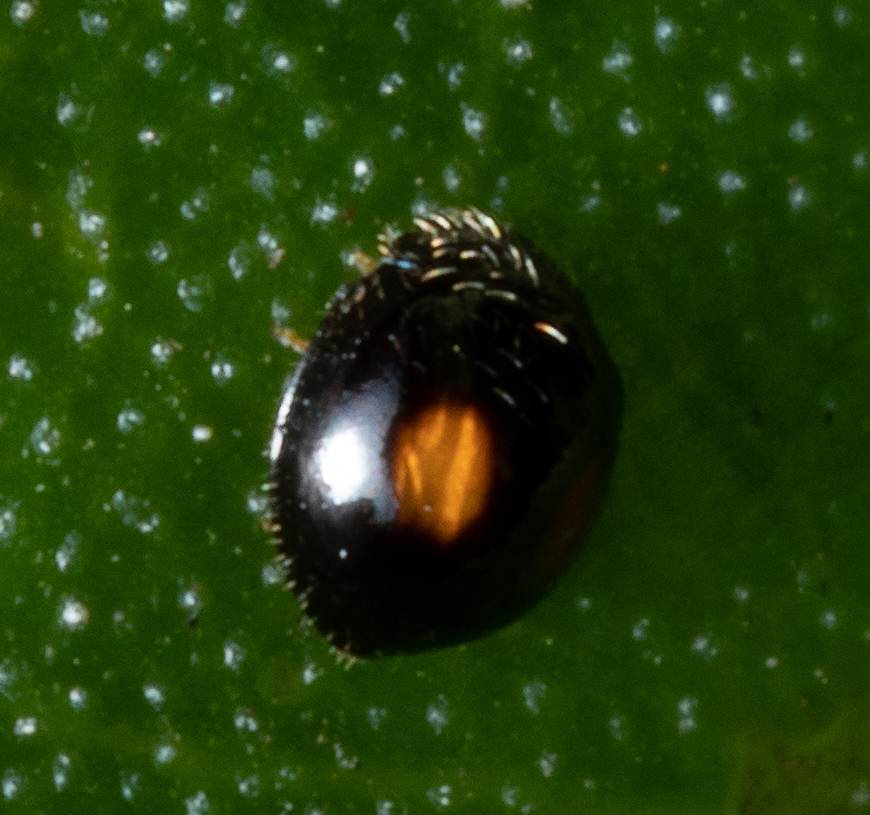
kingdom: Animalia
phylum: Arthropoda
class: Insecta
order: Coleoptera
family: Coccinellidae
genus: Serangium
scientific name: Serangium maculigerum
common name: Lady beetle
